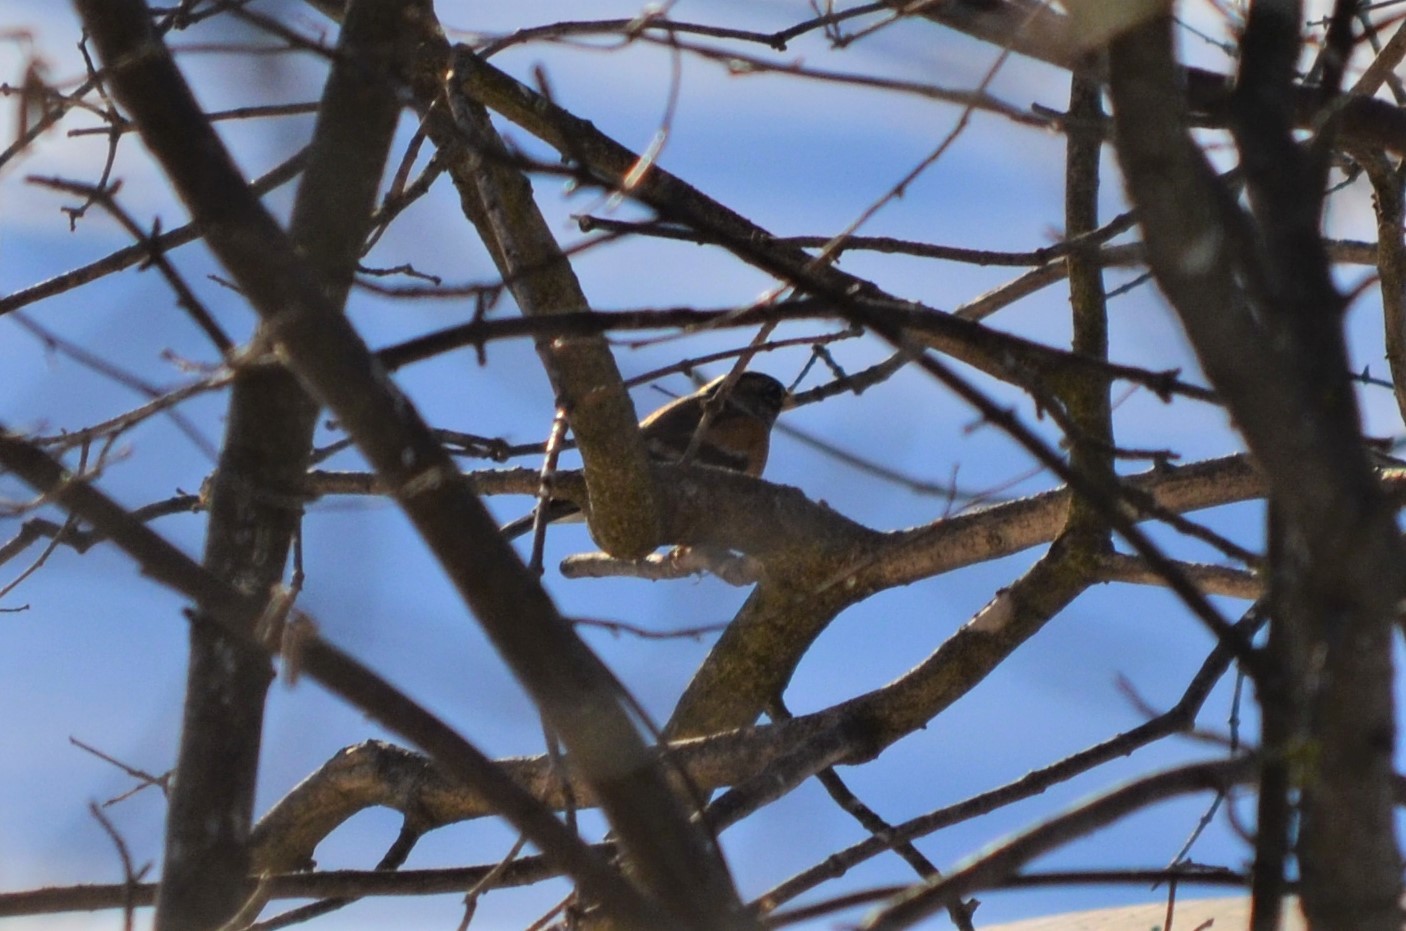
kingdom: Animalia
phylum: Chordata
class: Aves
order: Passeriformes
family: Fringillidae
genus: Fringilla
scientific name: Fringilla montifringilla
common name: Brambling
